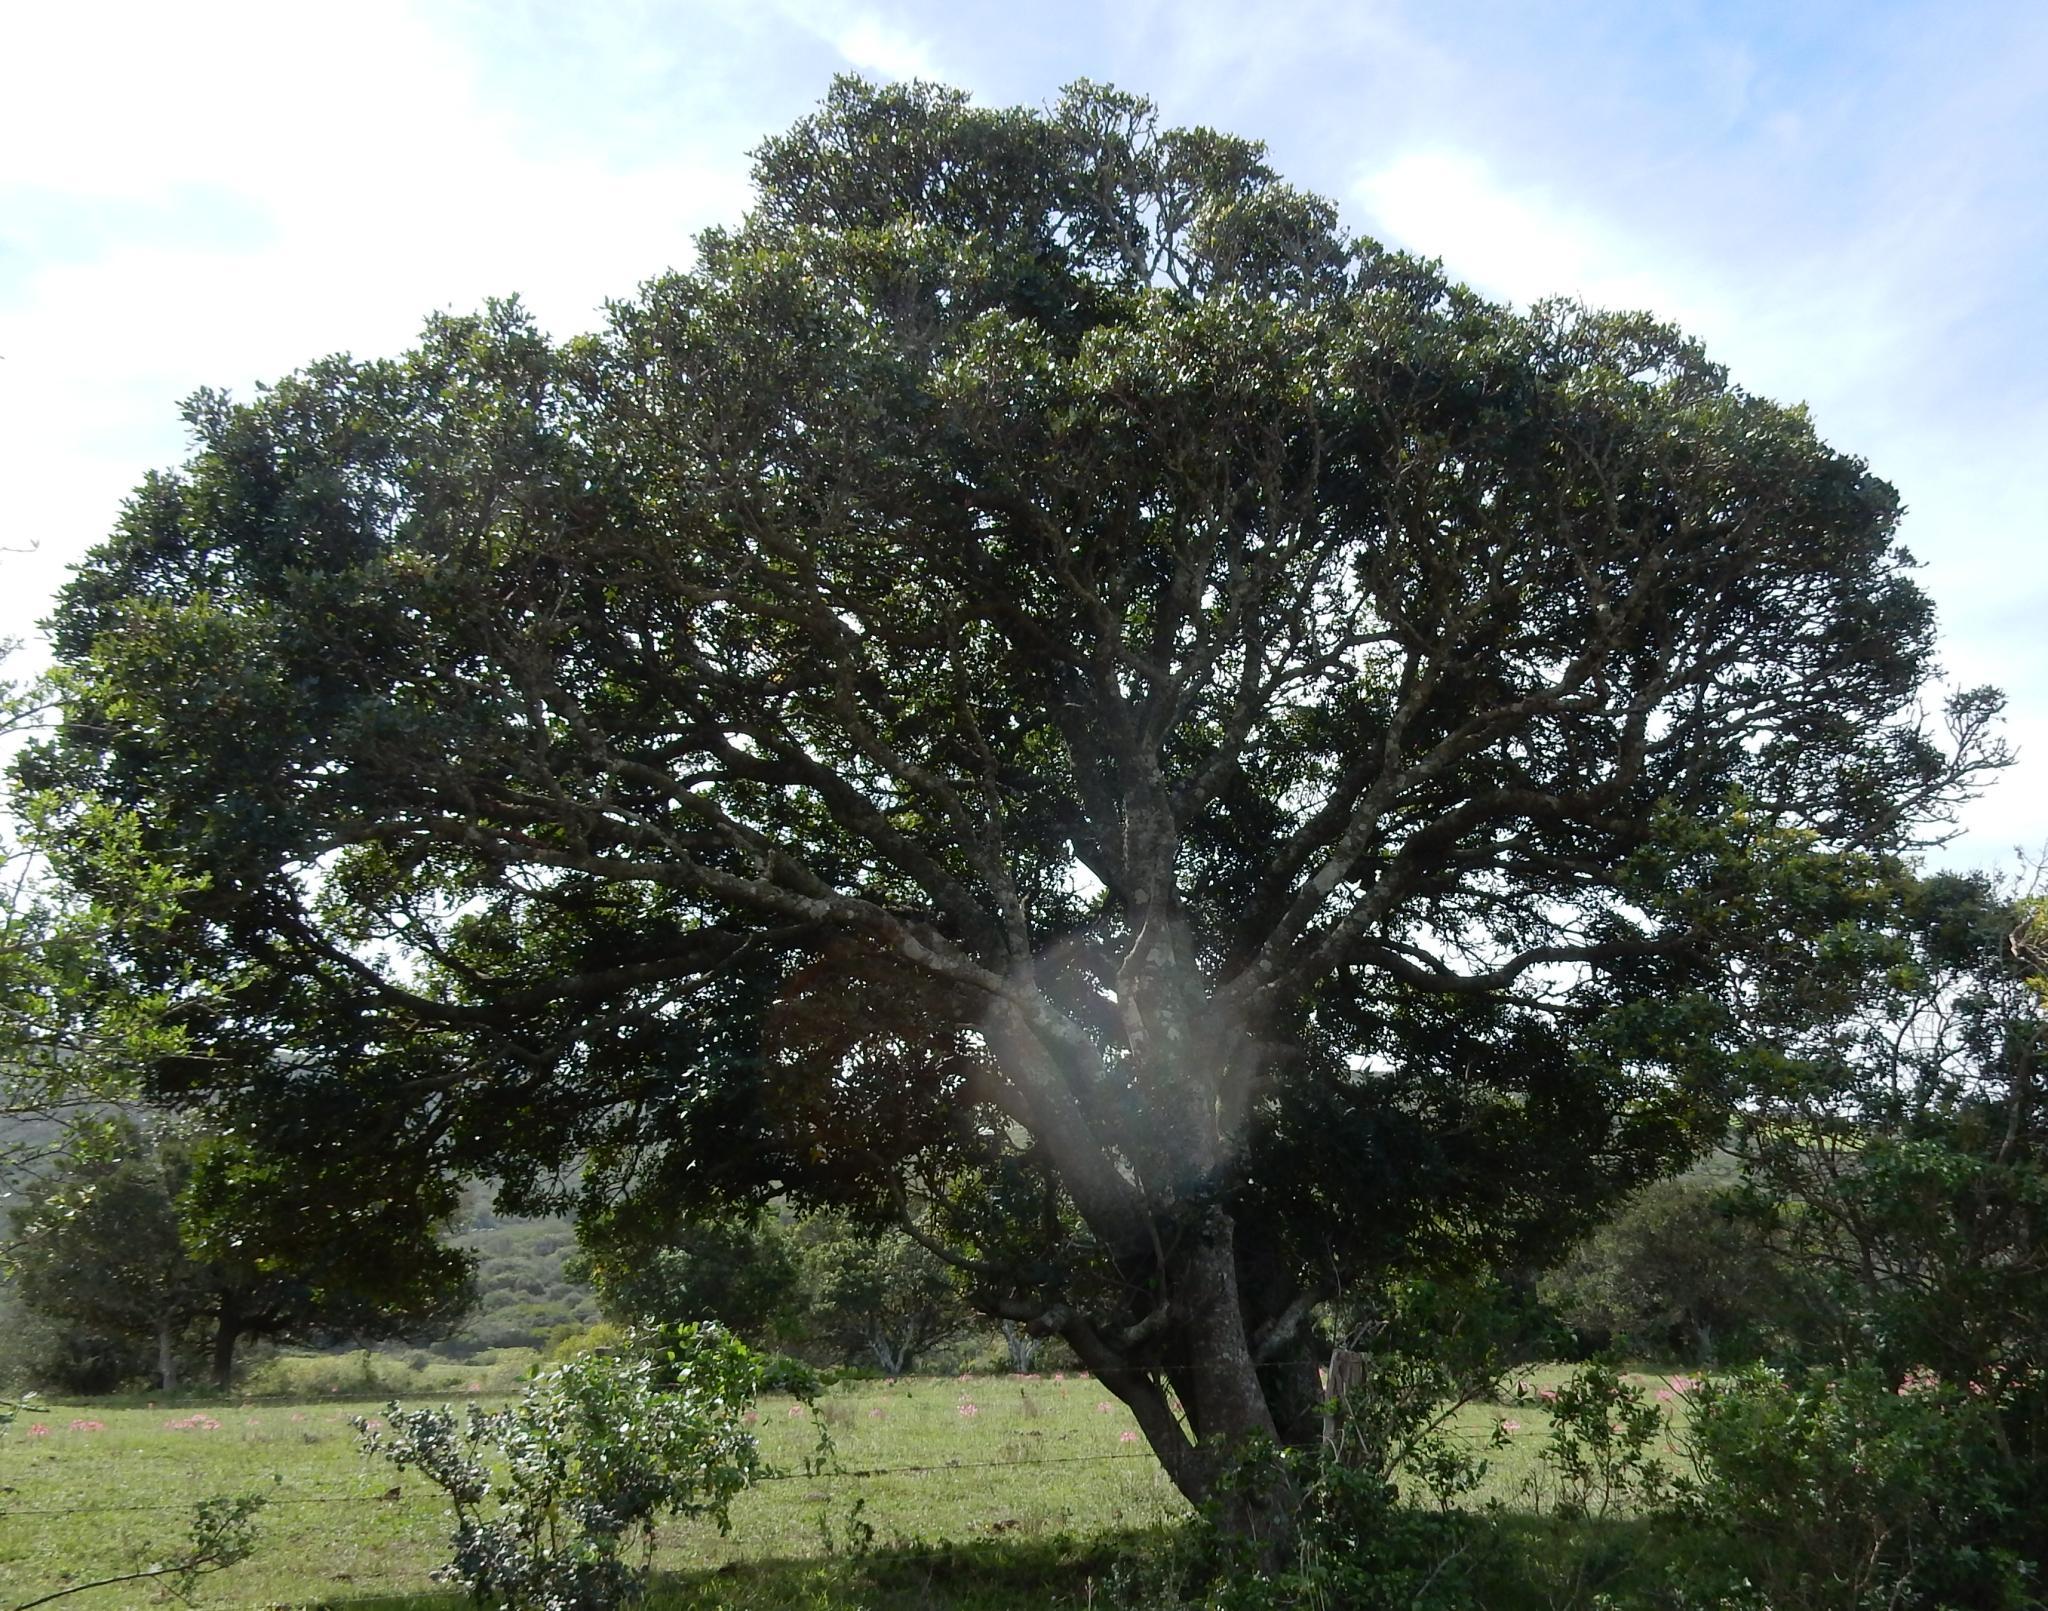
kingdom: Plantae
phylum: Tracheophyta
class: Magnoliopsida
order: Sapindales
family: Meliaceae
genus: Ekebergia
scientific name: Ekebergia capensis
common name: Cape-ash
